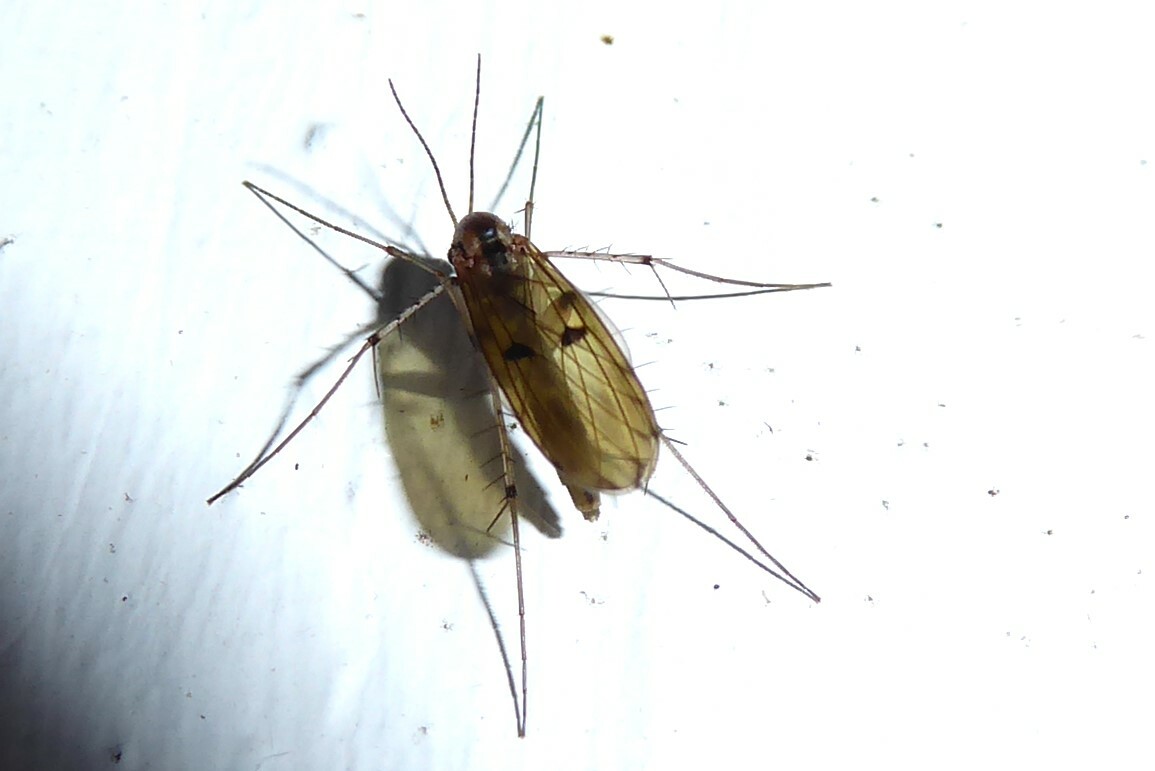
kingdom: Animalia
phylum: Arthropoda
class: Insecta
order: Diptera
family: Mycetophilidae
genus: Mycetophila
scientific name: Mycetophila marginepunctata
